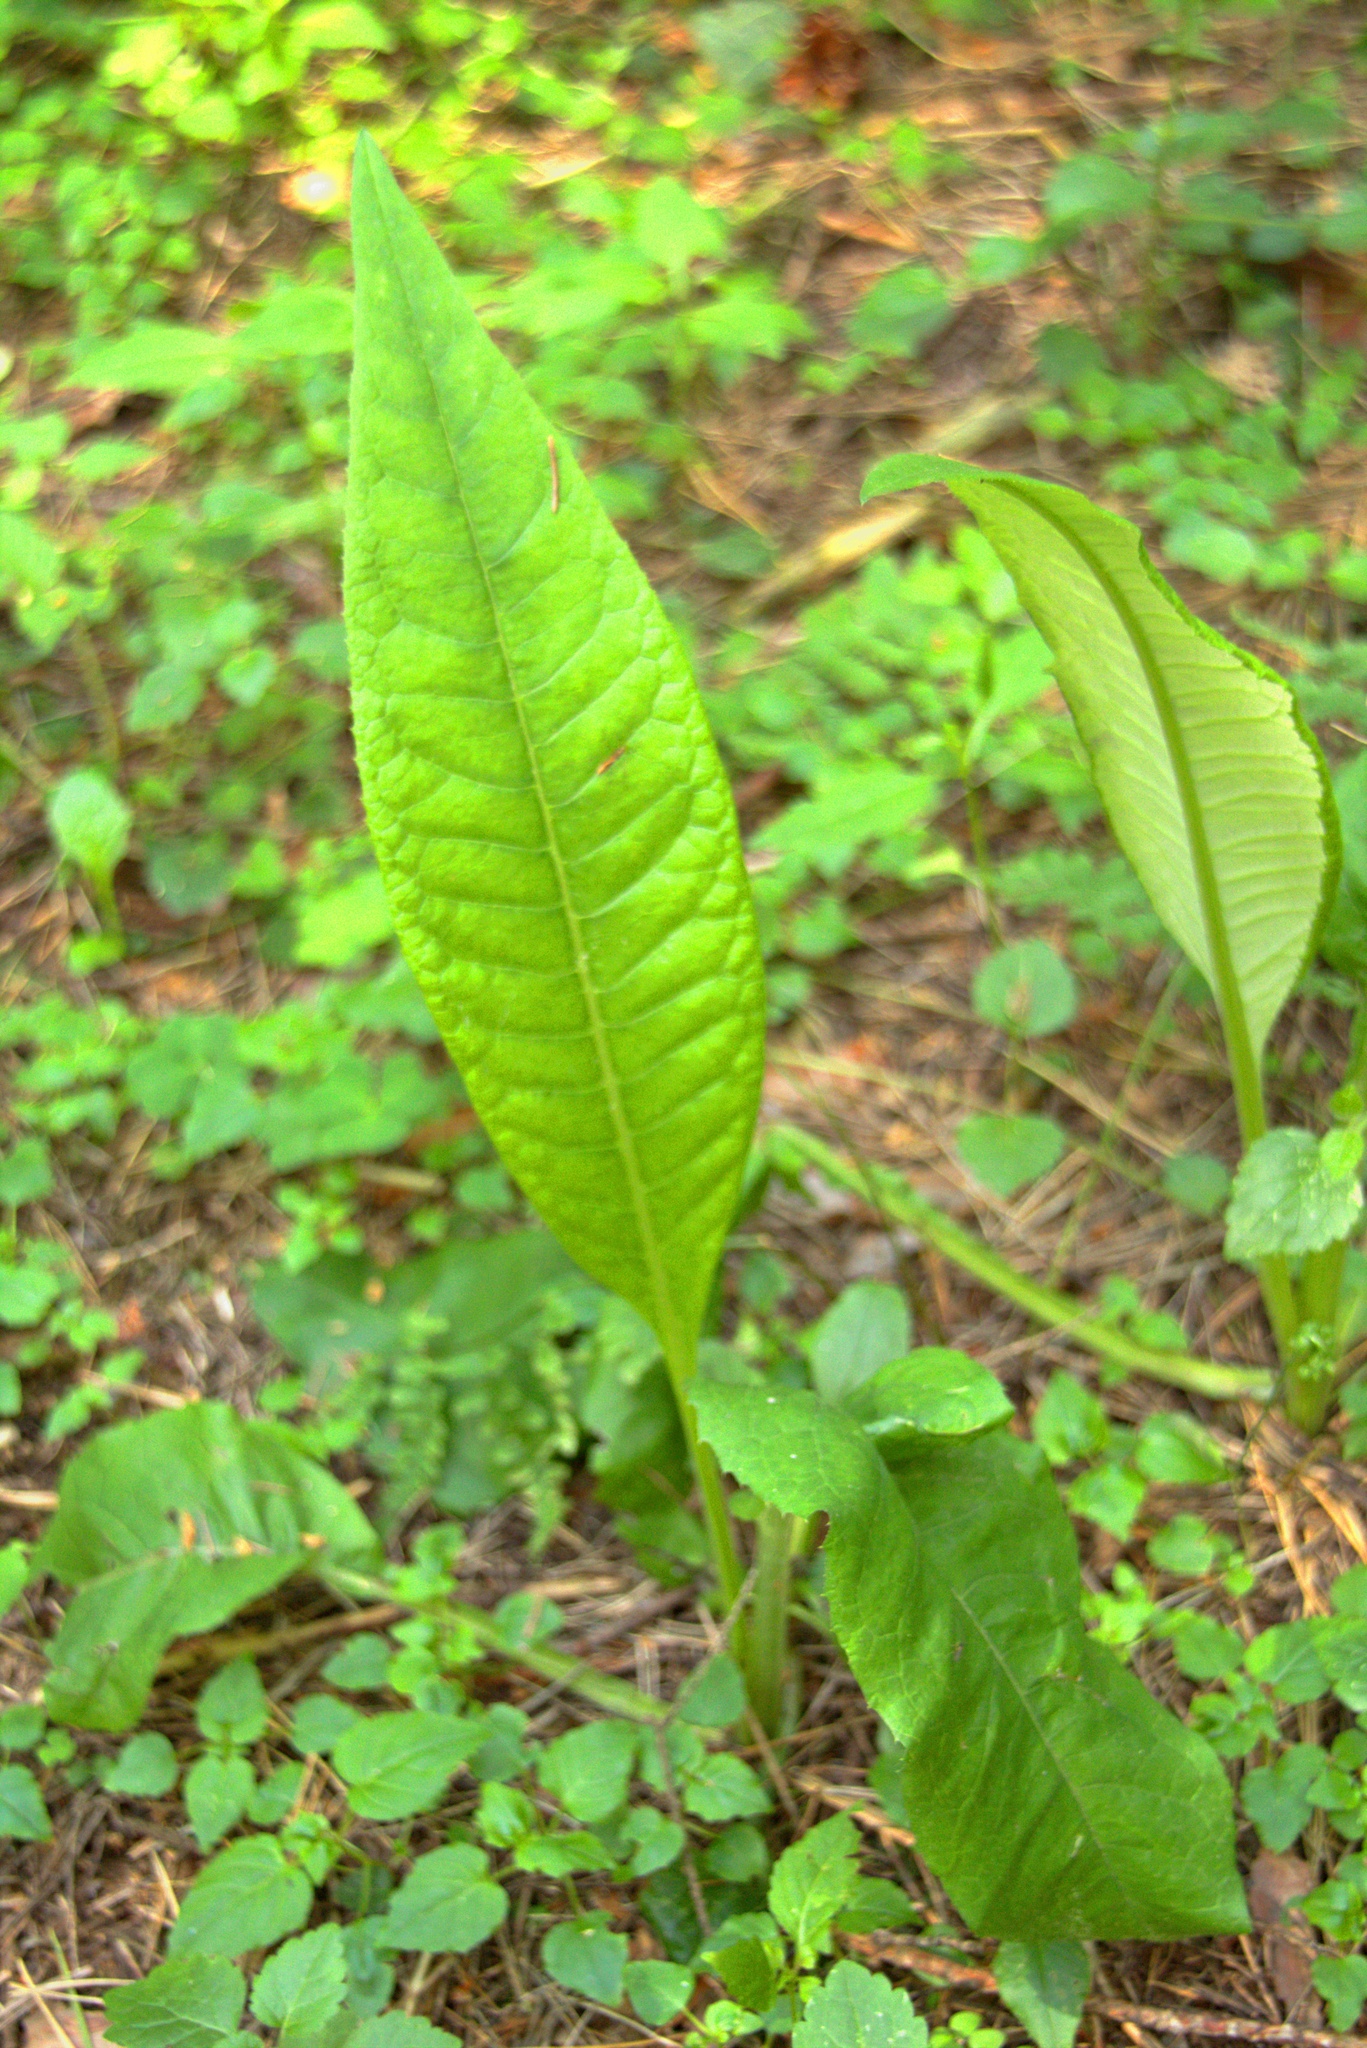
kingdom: Plantae
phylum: Tracheophyta
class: Magnoliopsida
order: Asterales
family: Asteraceae
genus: Cirsium
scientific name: Cirsium heterophyllum
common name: Melancholy thistle
